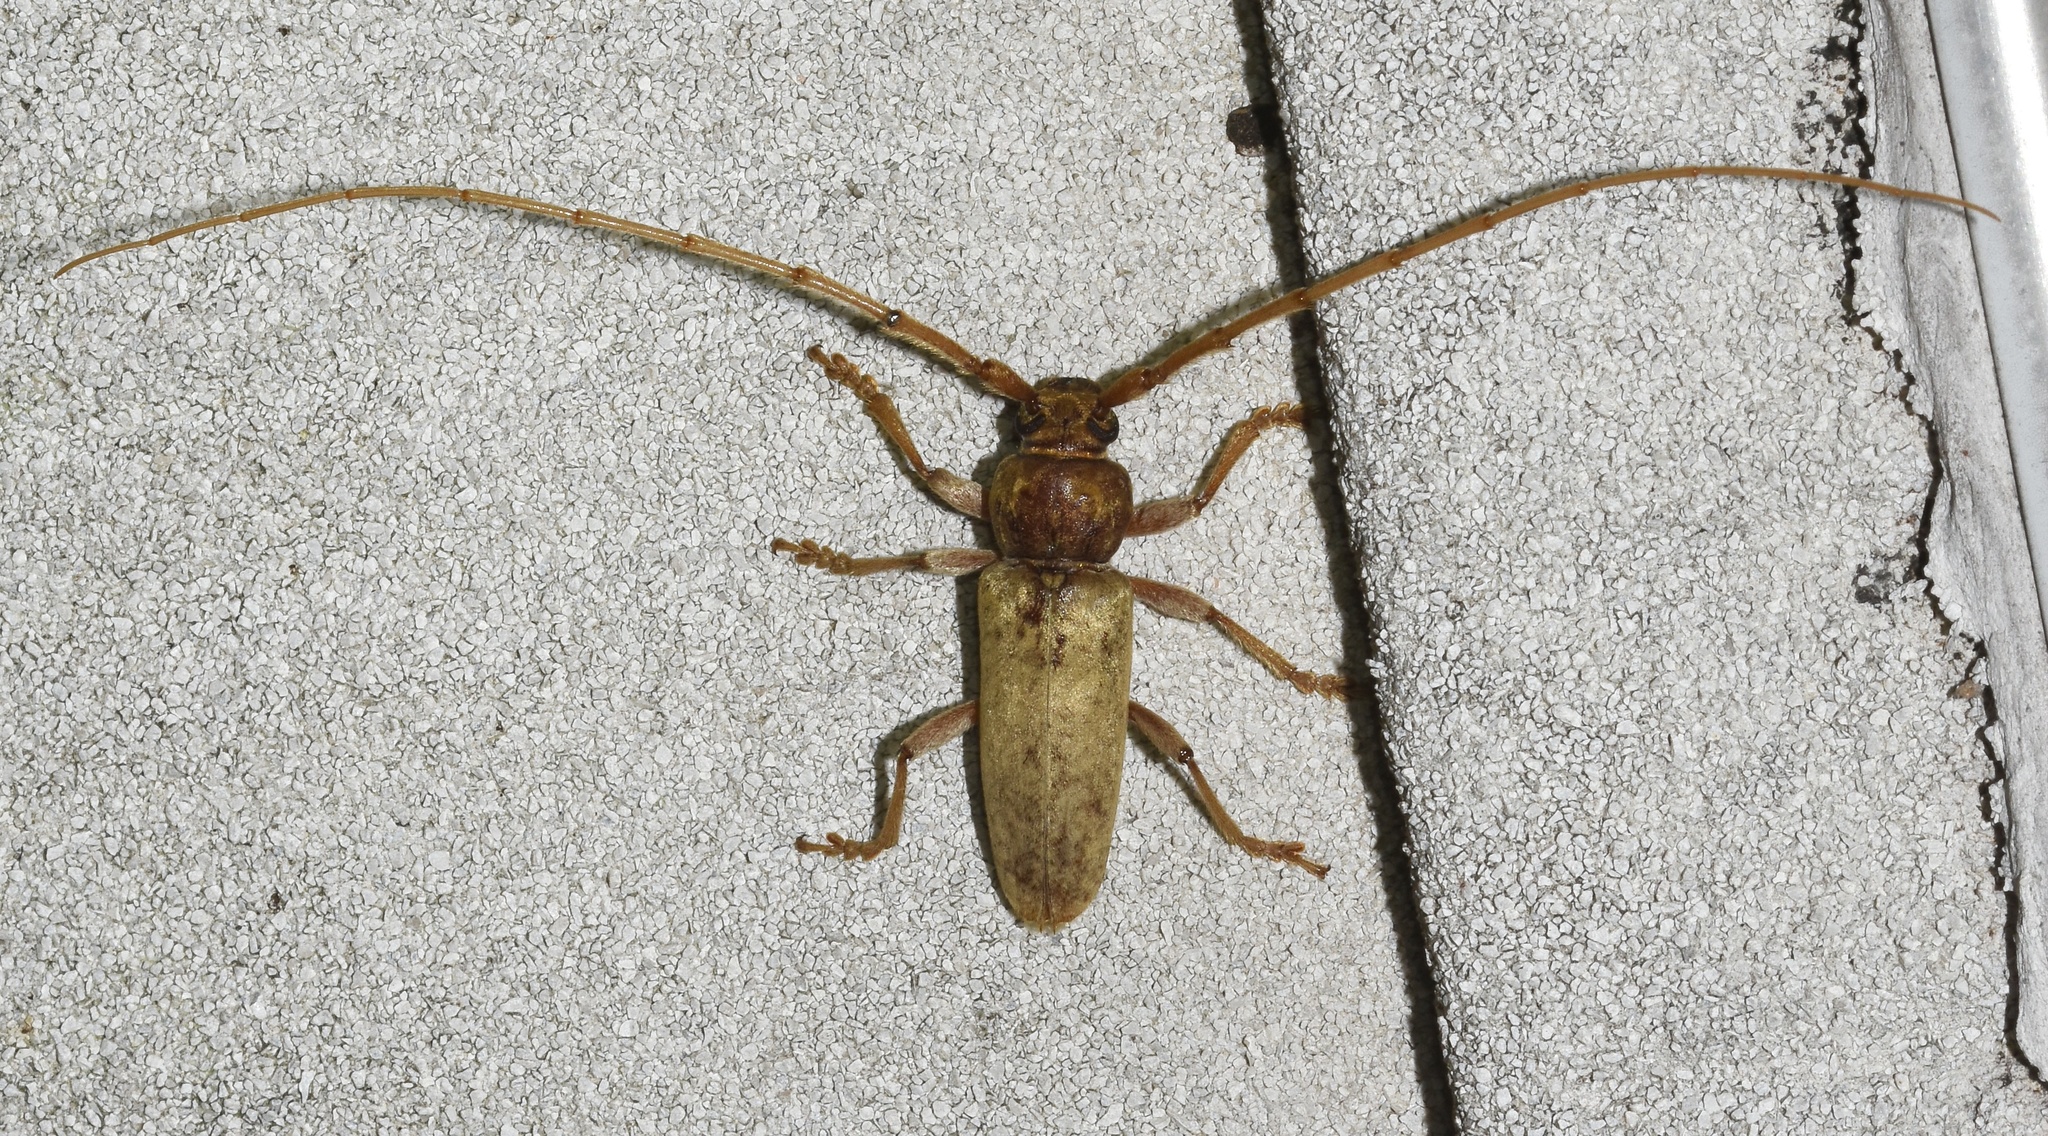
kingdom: Animalia
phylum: Arthropoda
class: Insecta
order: Coleoptera
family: Cerambycidae
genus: Enaphalodes
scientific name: Enaphalodes rufulus
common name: Red oak borer
